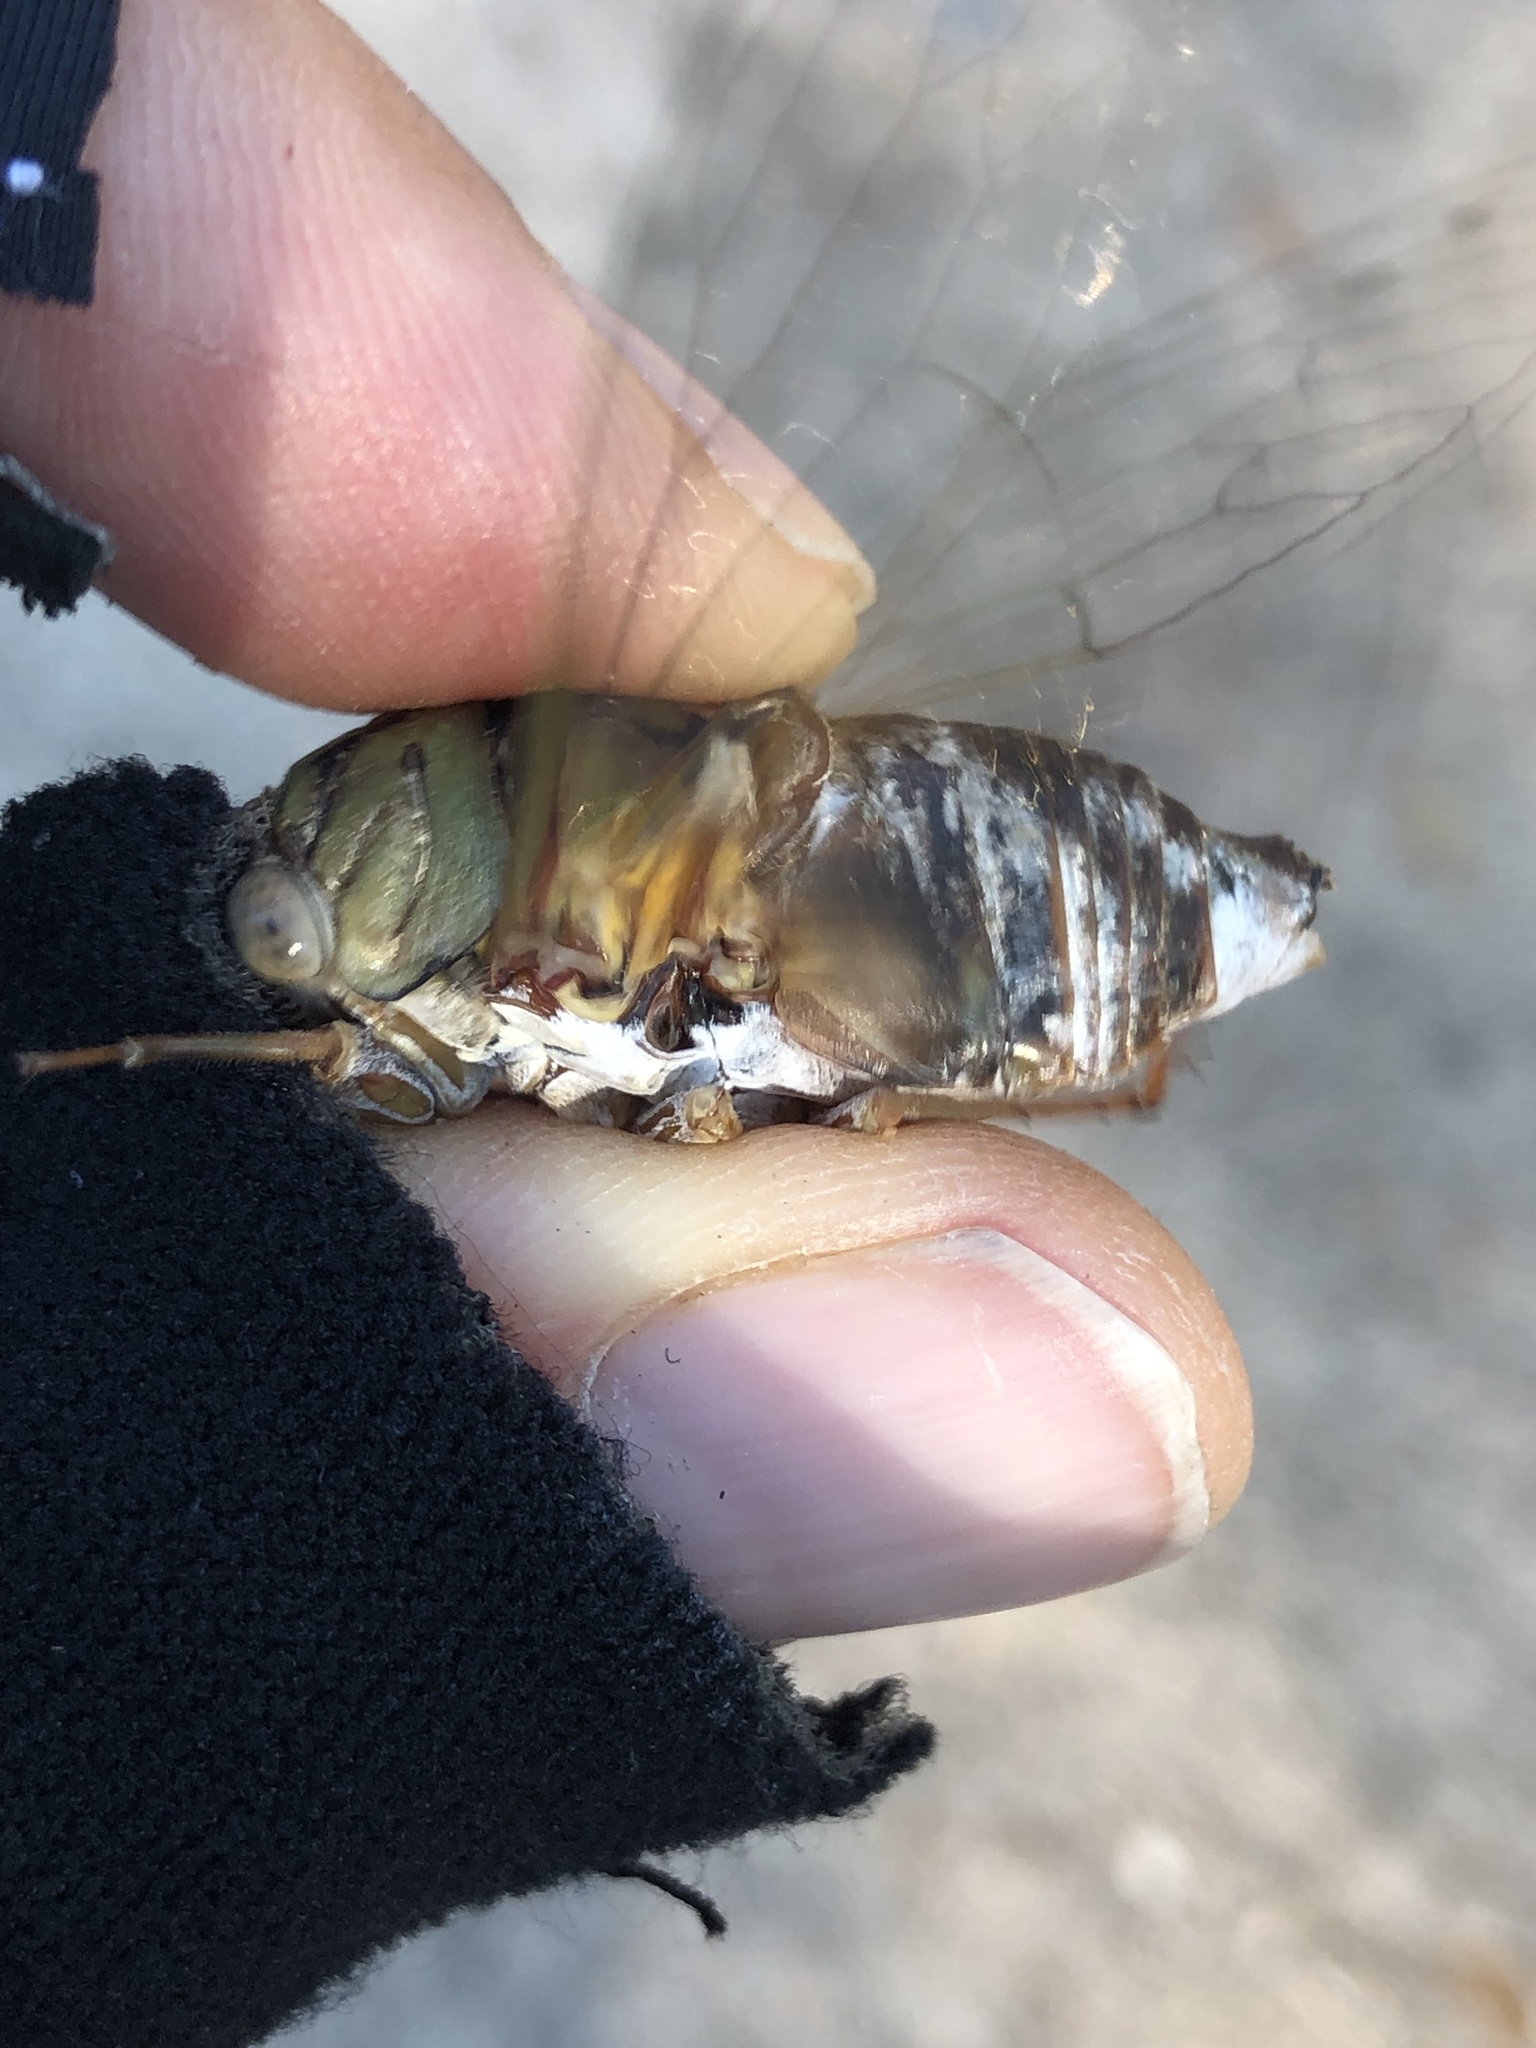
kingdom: Animalia
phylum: Arthropoda
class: Insecta
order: Hemiptera
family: Cicadidae
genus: Megatibicen
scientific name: Megatibicen resh
